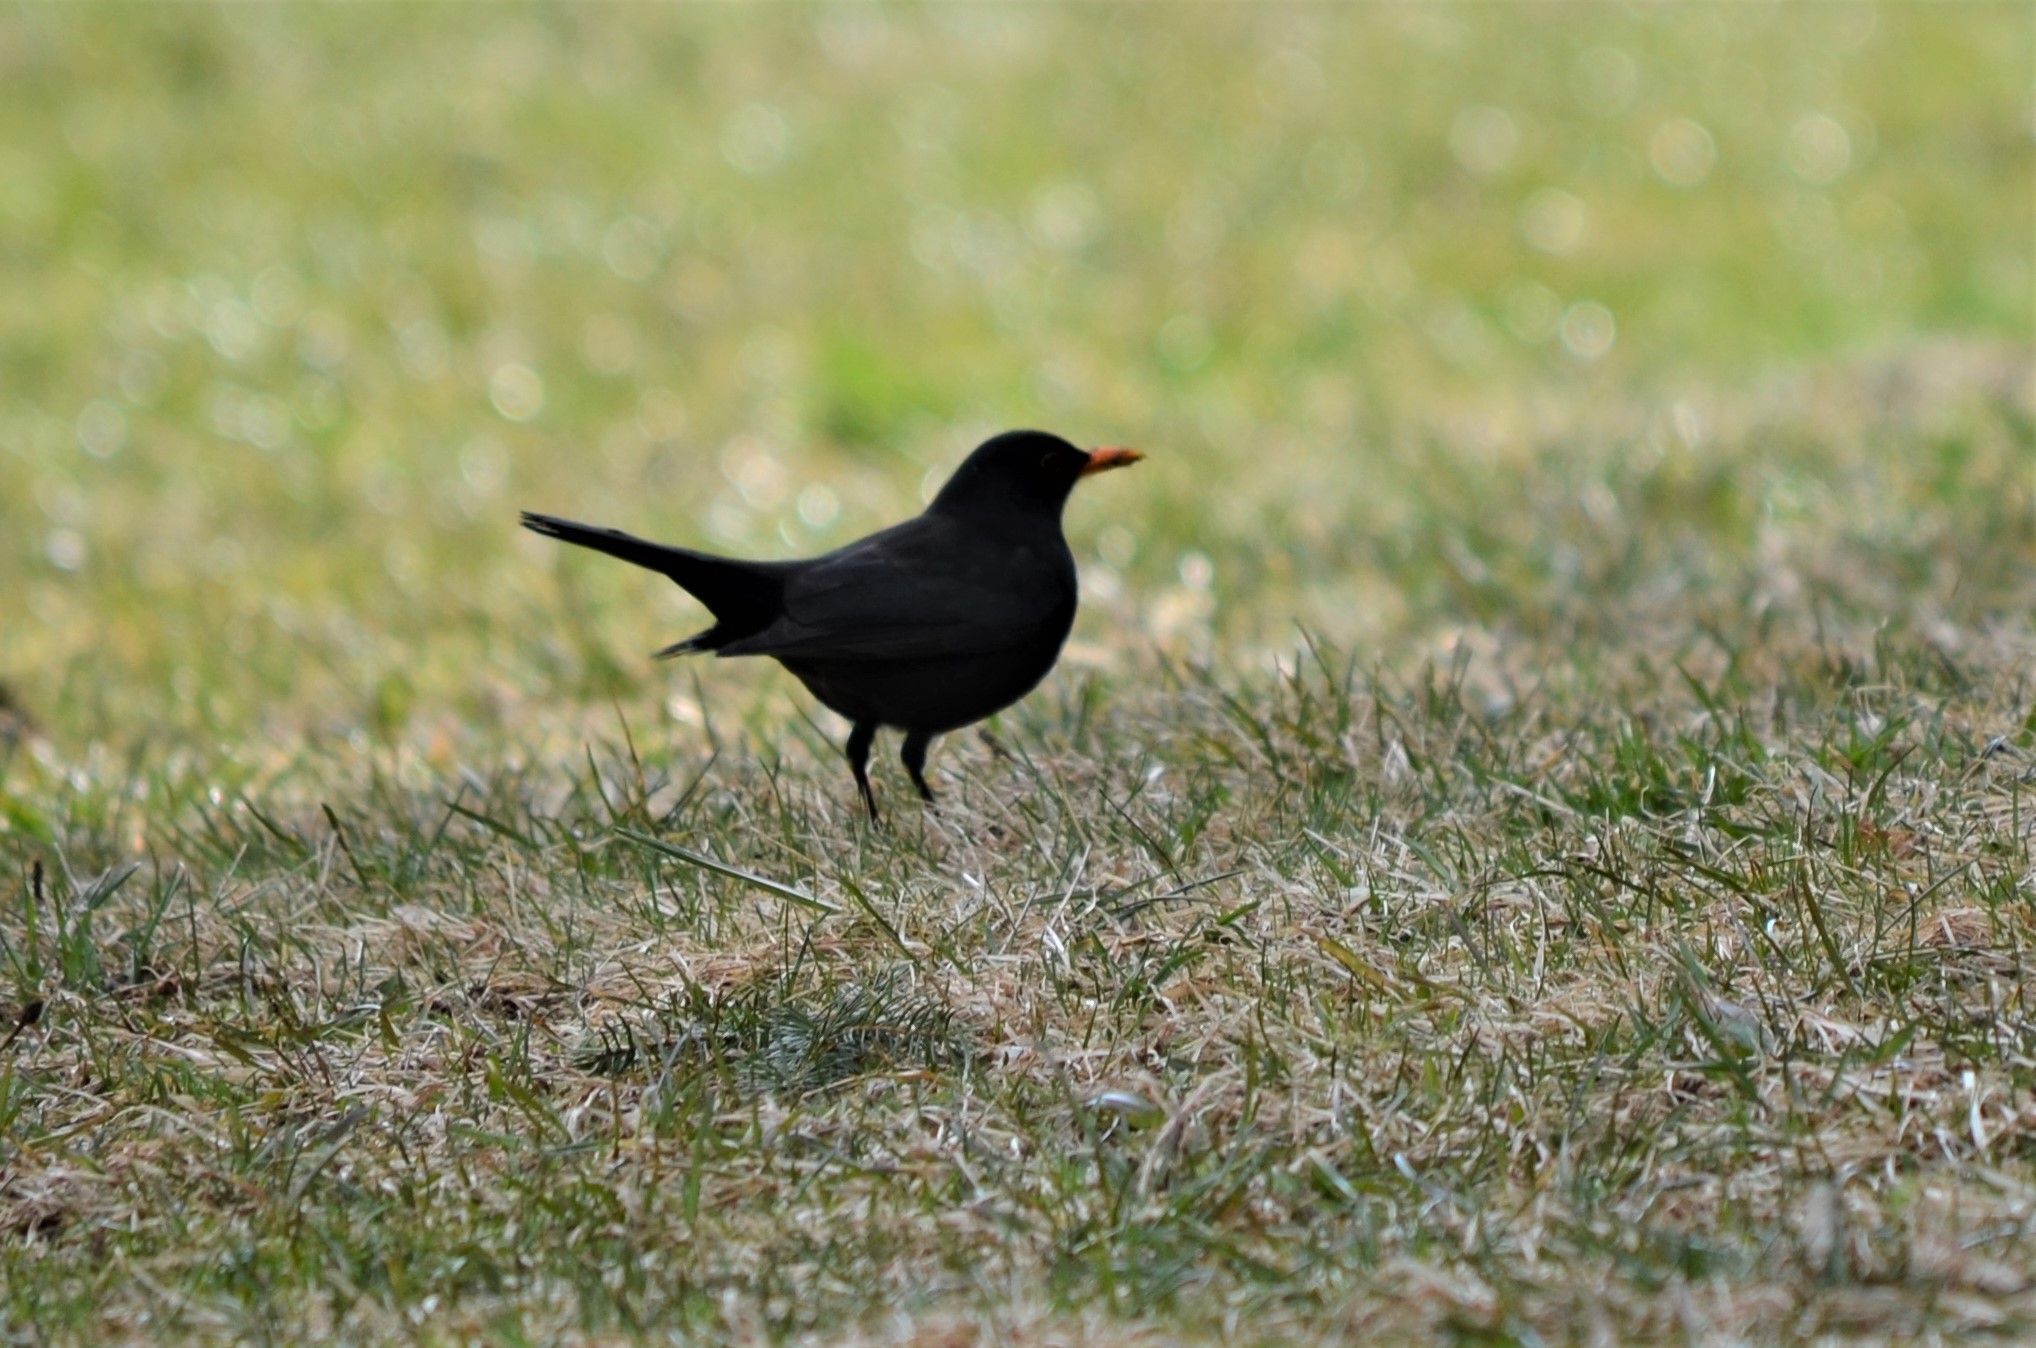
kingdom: Animalia
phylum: Chordata
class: Aves
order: Passeriformes
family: Turdidae
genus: Turdus
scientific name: Turdus merula
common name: Common blackbird
